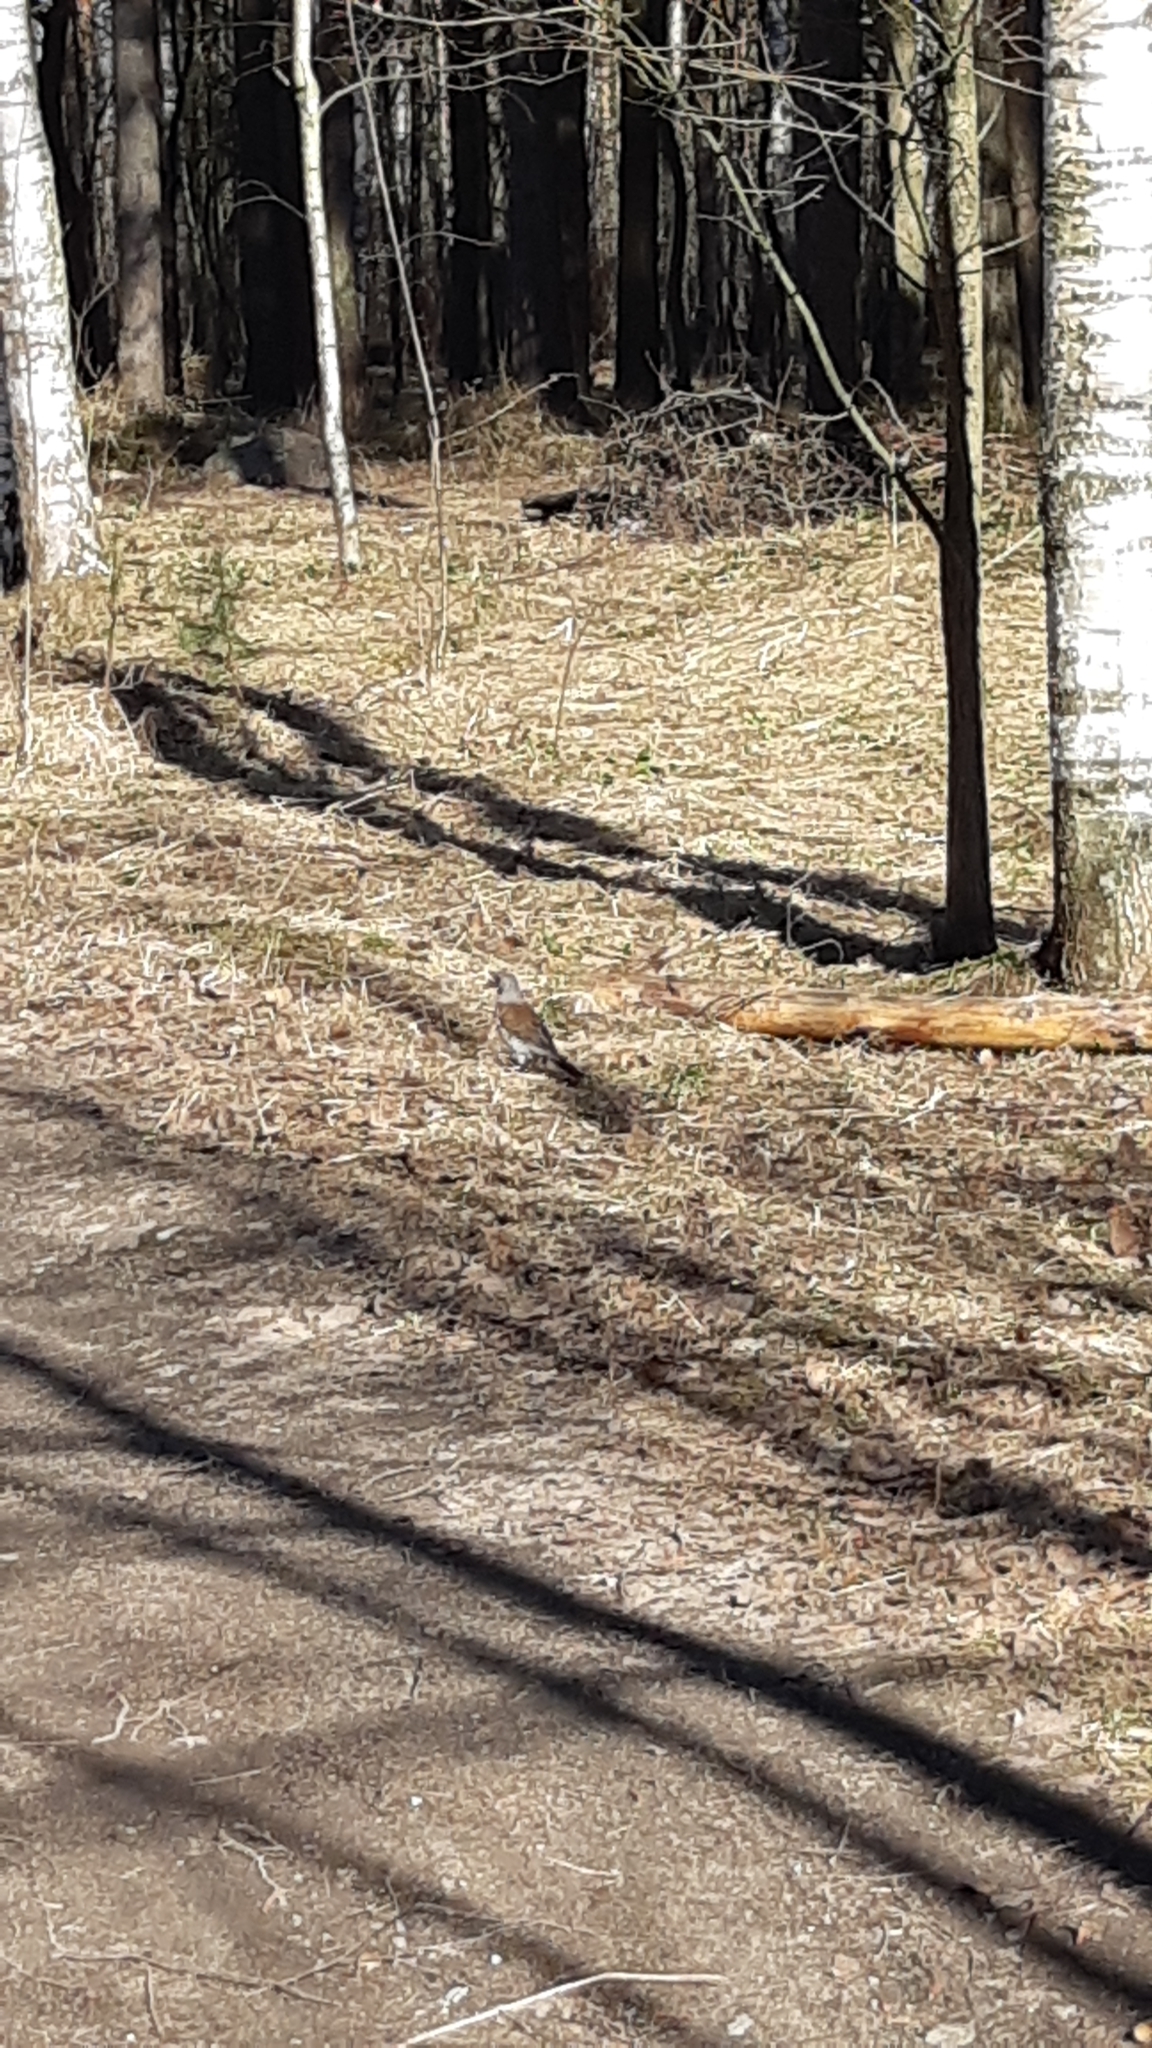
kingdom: Animalia
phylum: Chordata
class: Aves
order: Passeriformes
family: Turdidae
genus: Turdus
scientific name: Turdus pilaris
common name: Fieldfare
